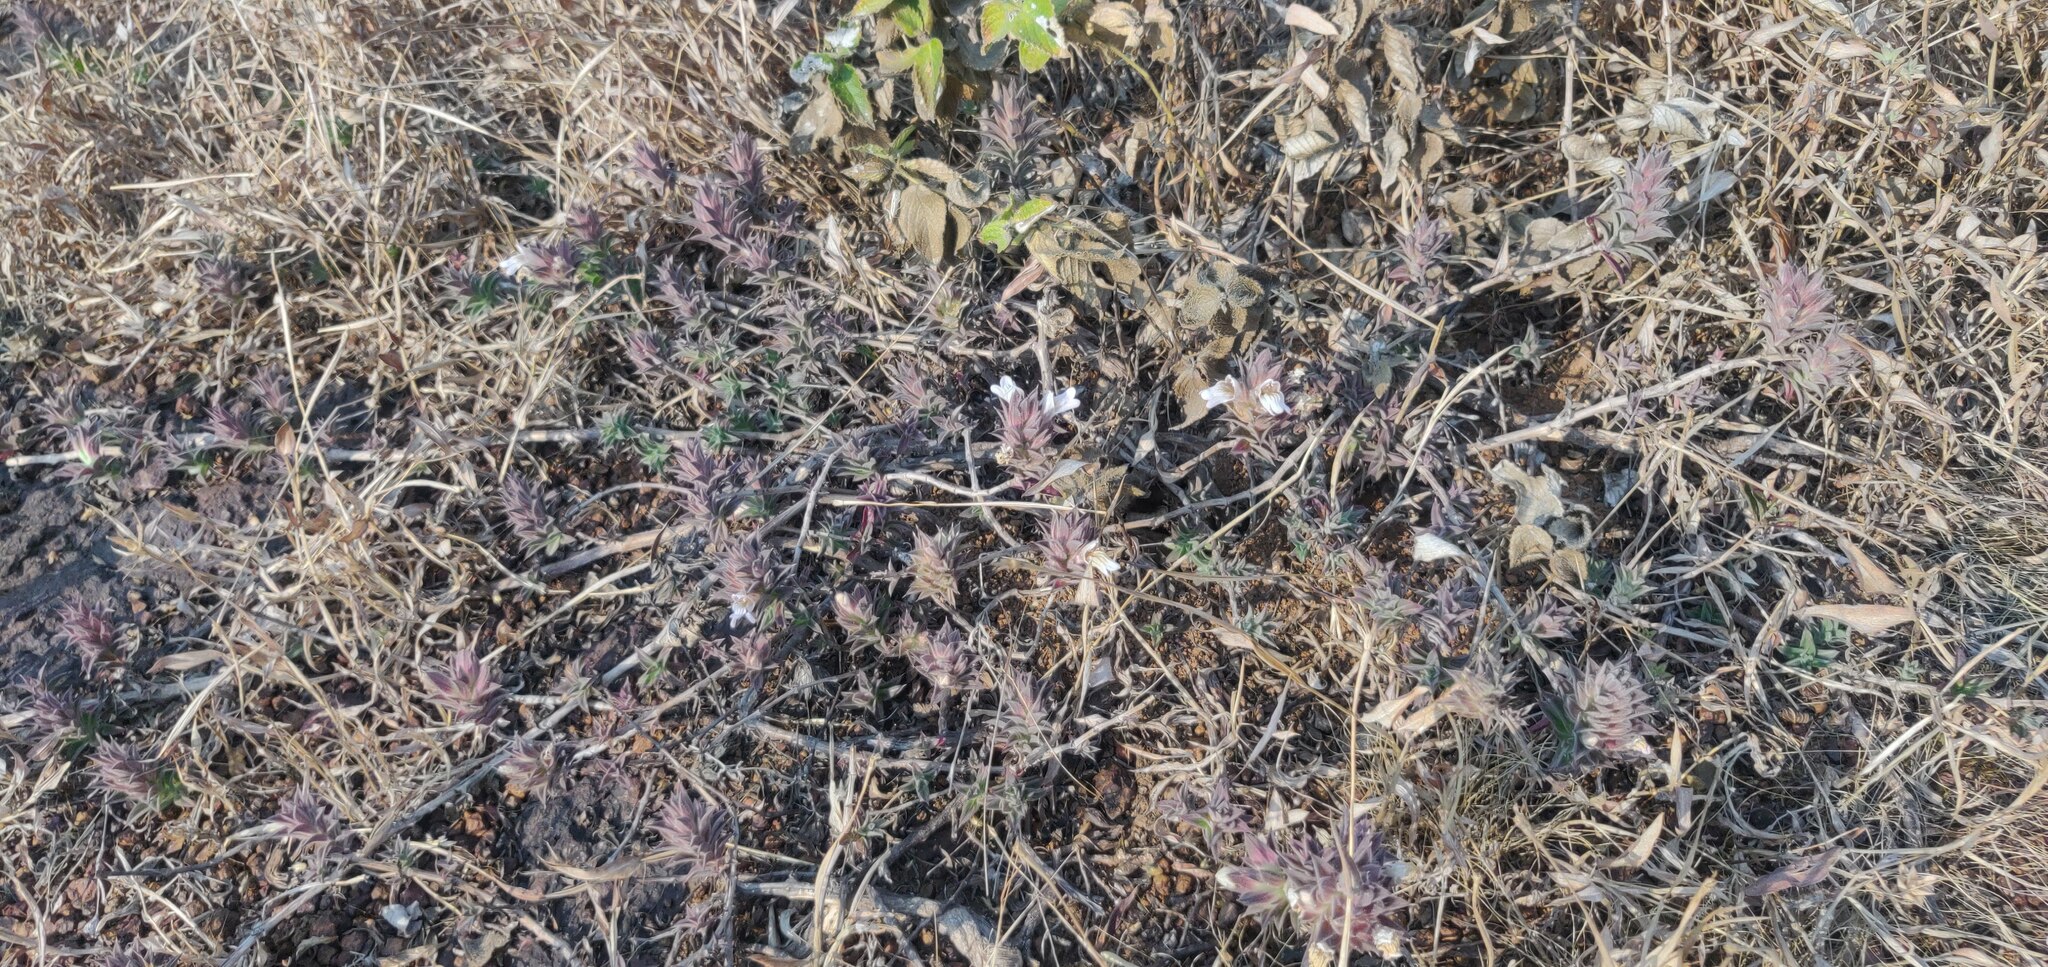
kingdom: Plantae
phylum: Tracheophyta
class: Magnoliopsida
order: Lamiales
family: Acanthaceae
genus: Lepidagathis
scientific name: Lepidagathis
